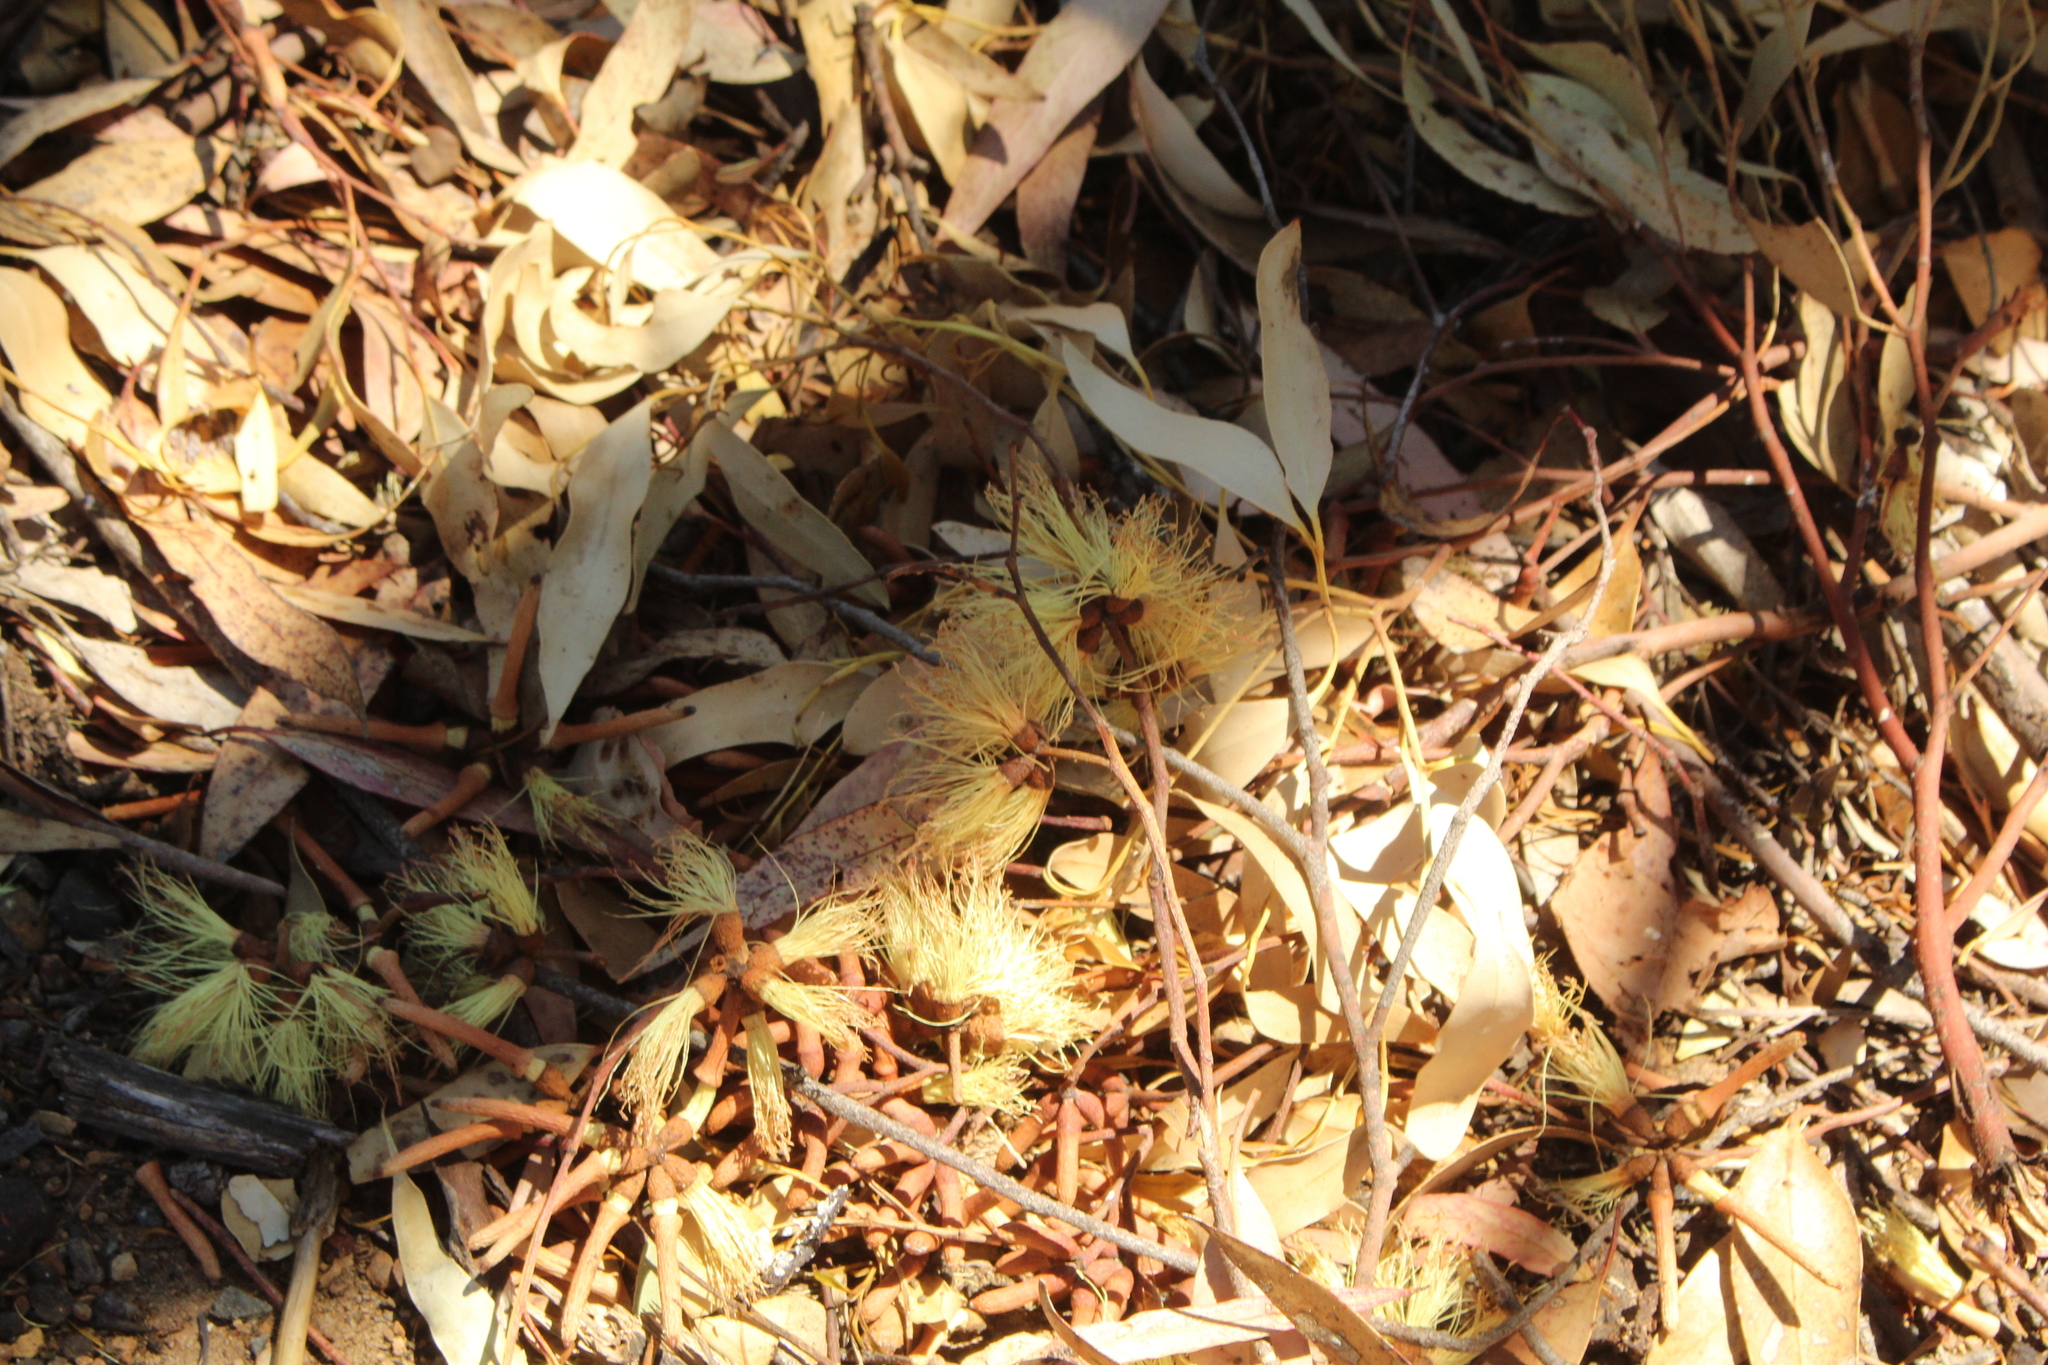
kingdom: Plantae
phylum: Tracheophyta
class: Magnoliopsida
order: Myrtales
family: Myrtaceae
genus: Eucalyptus
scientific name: Eucalyptus cornuta
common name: Yate
